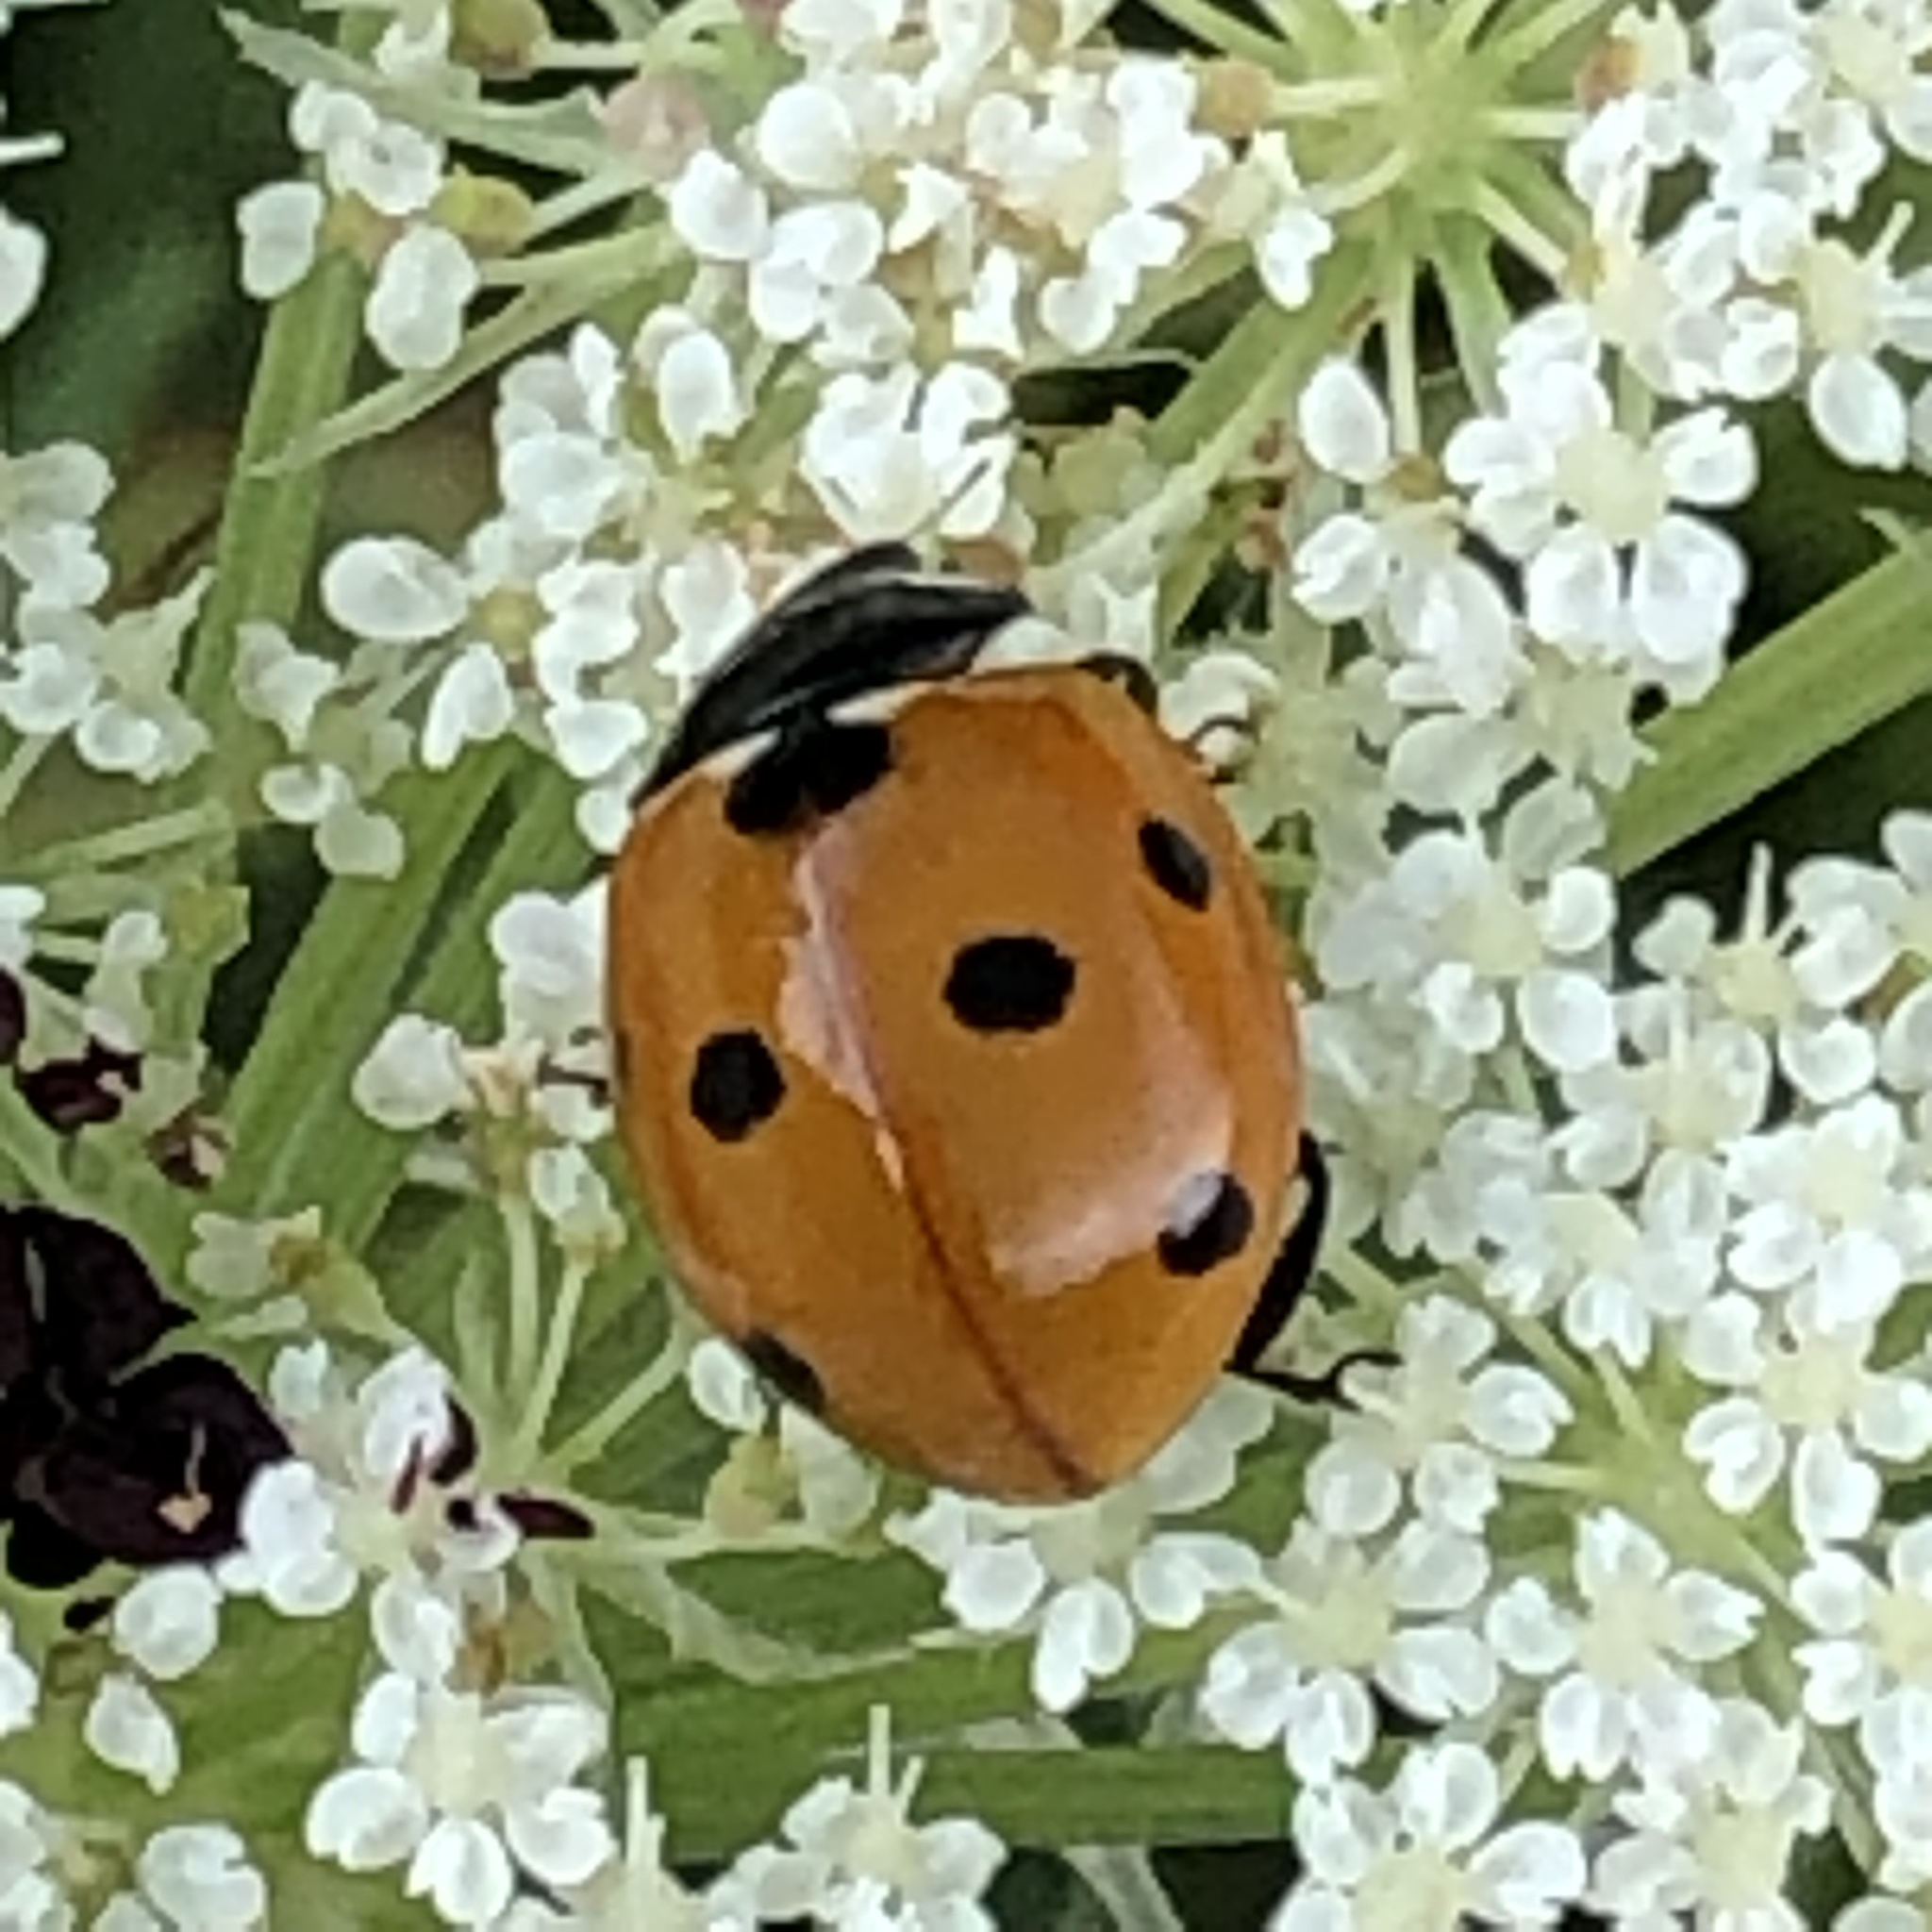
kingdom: Animalia
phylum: Arthropoda
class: Insecta
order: Coleoptera
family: Coccinellidae
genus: Coccinella
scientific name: Coccinella septempunctata
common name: Sevenspotted lady beetle
